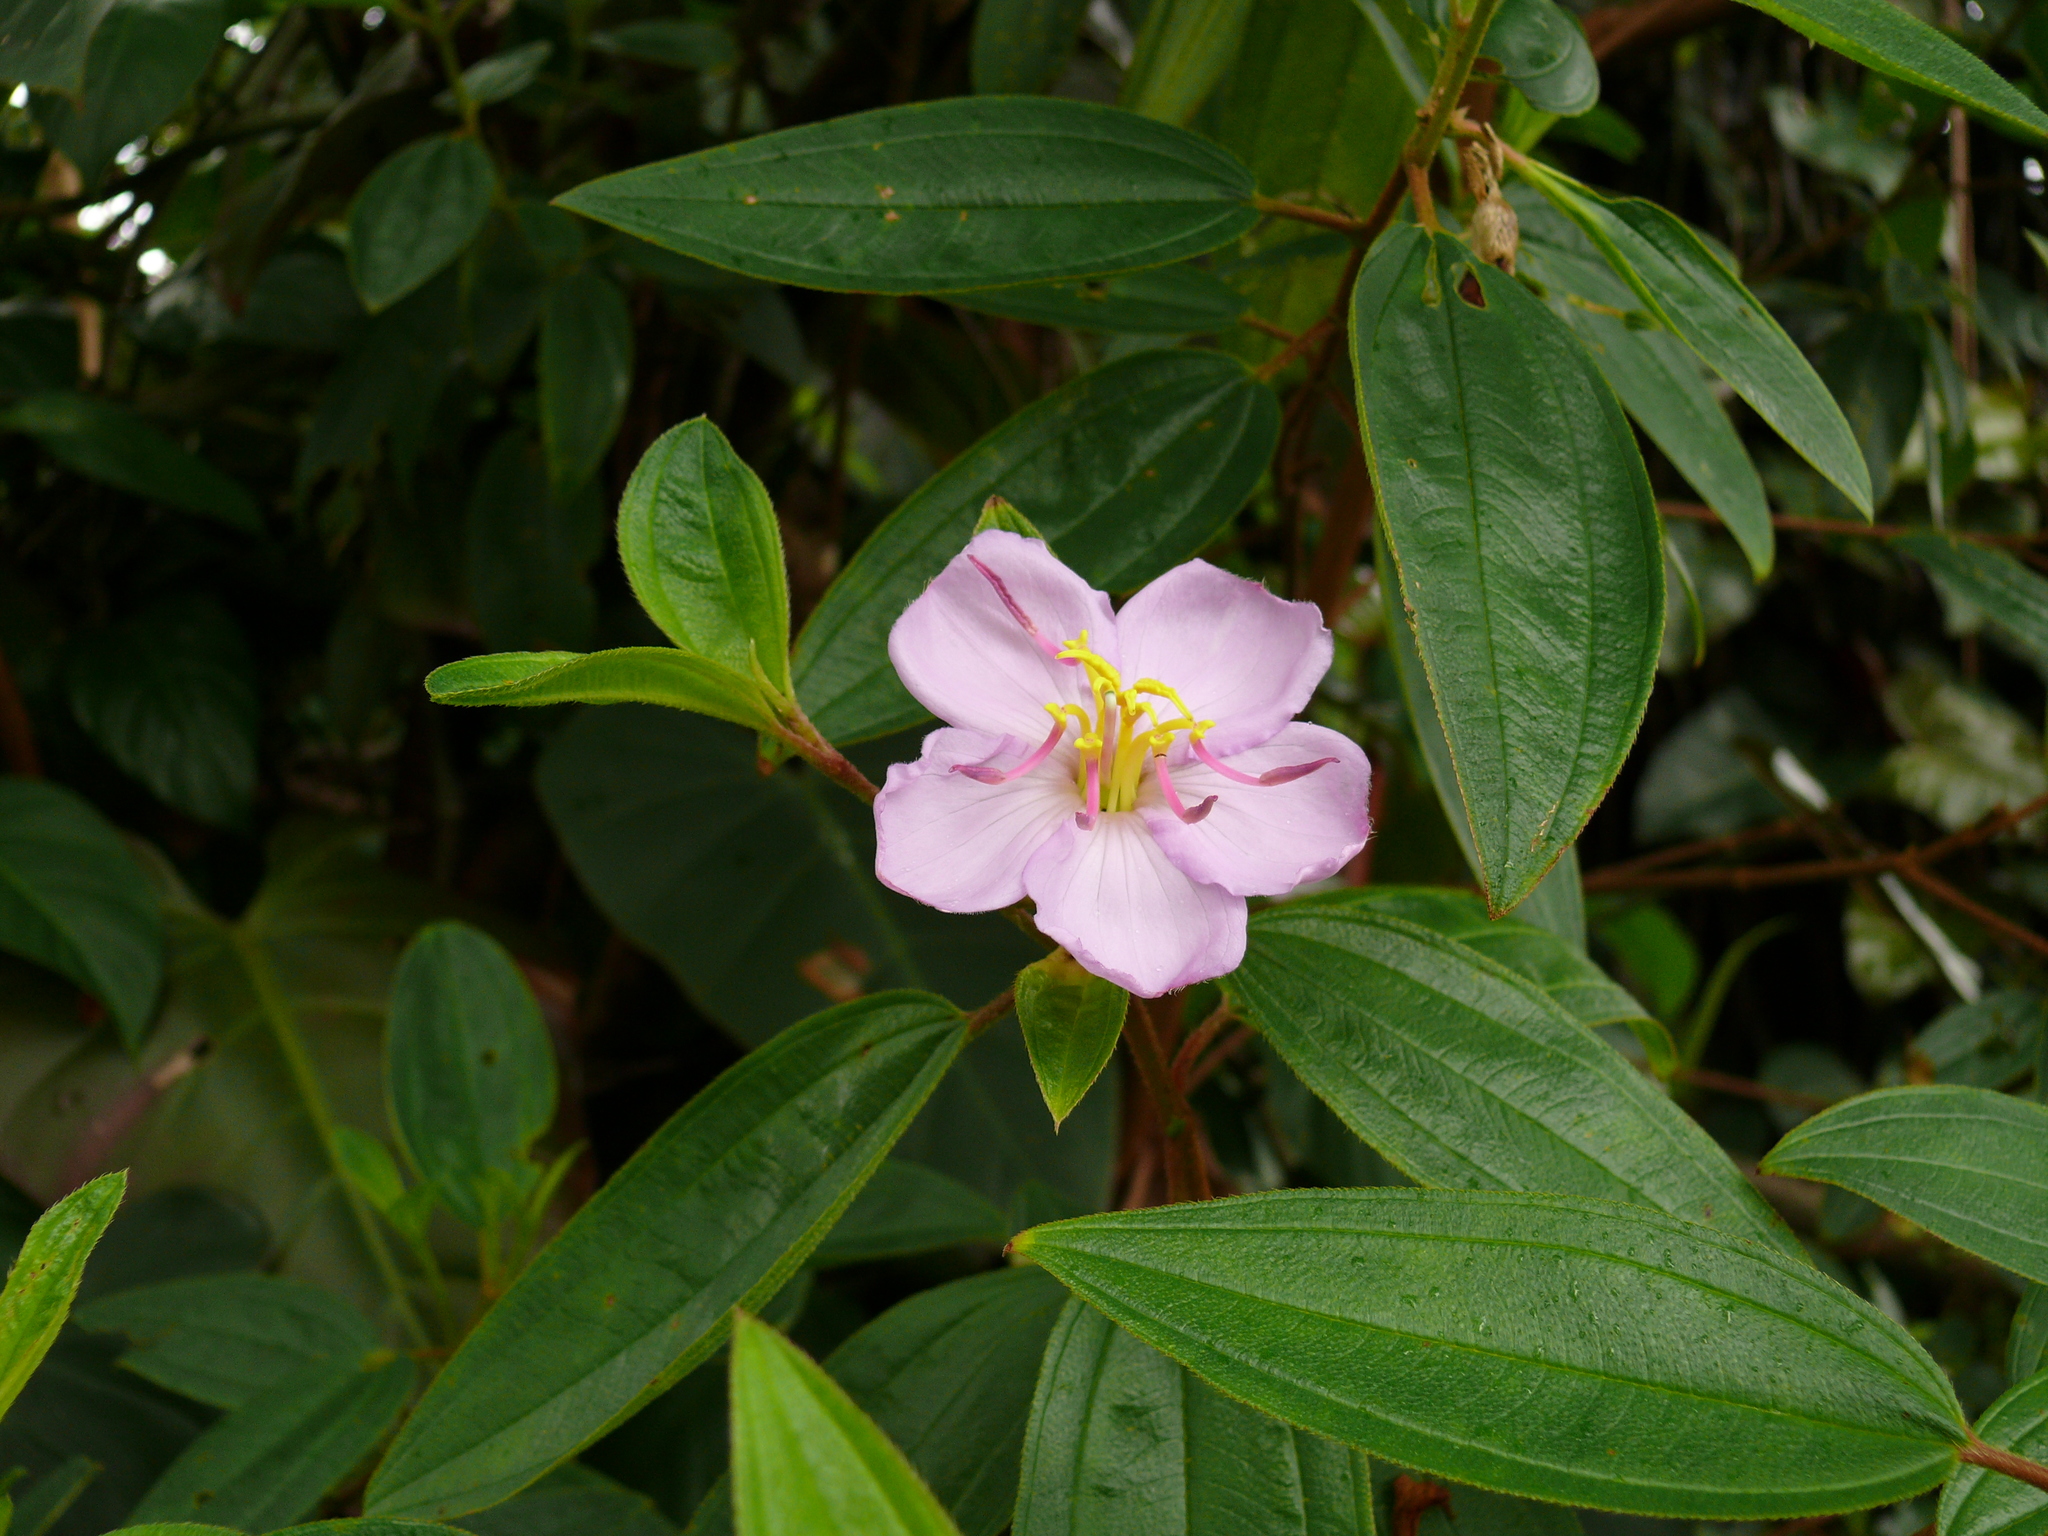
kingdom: Plantae
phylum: Tracheophyta
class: Magnoliopsida
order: Myrtales
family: Melastomataceae
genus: Melastoma
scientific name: Melastoma malabathricum
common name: Indian-rhododendron
